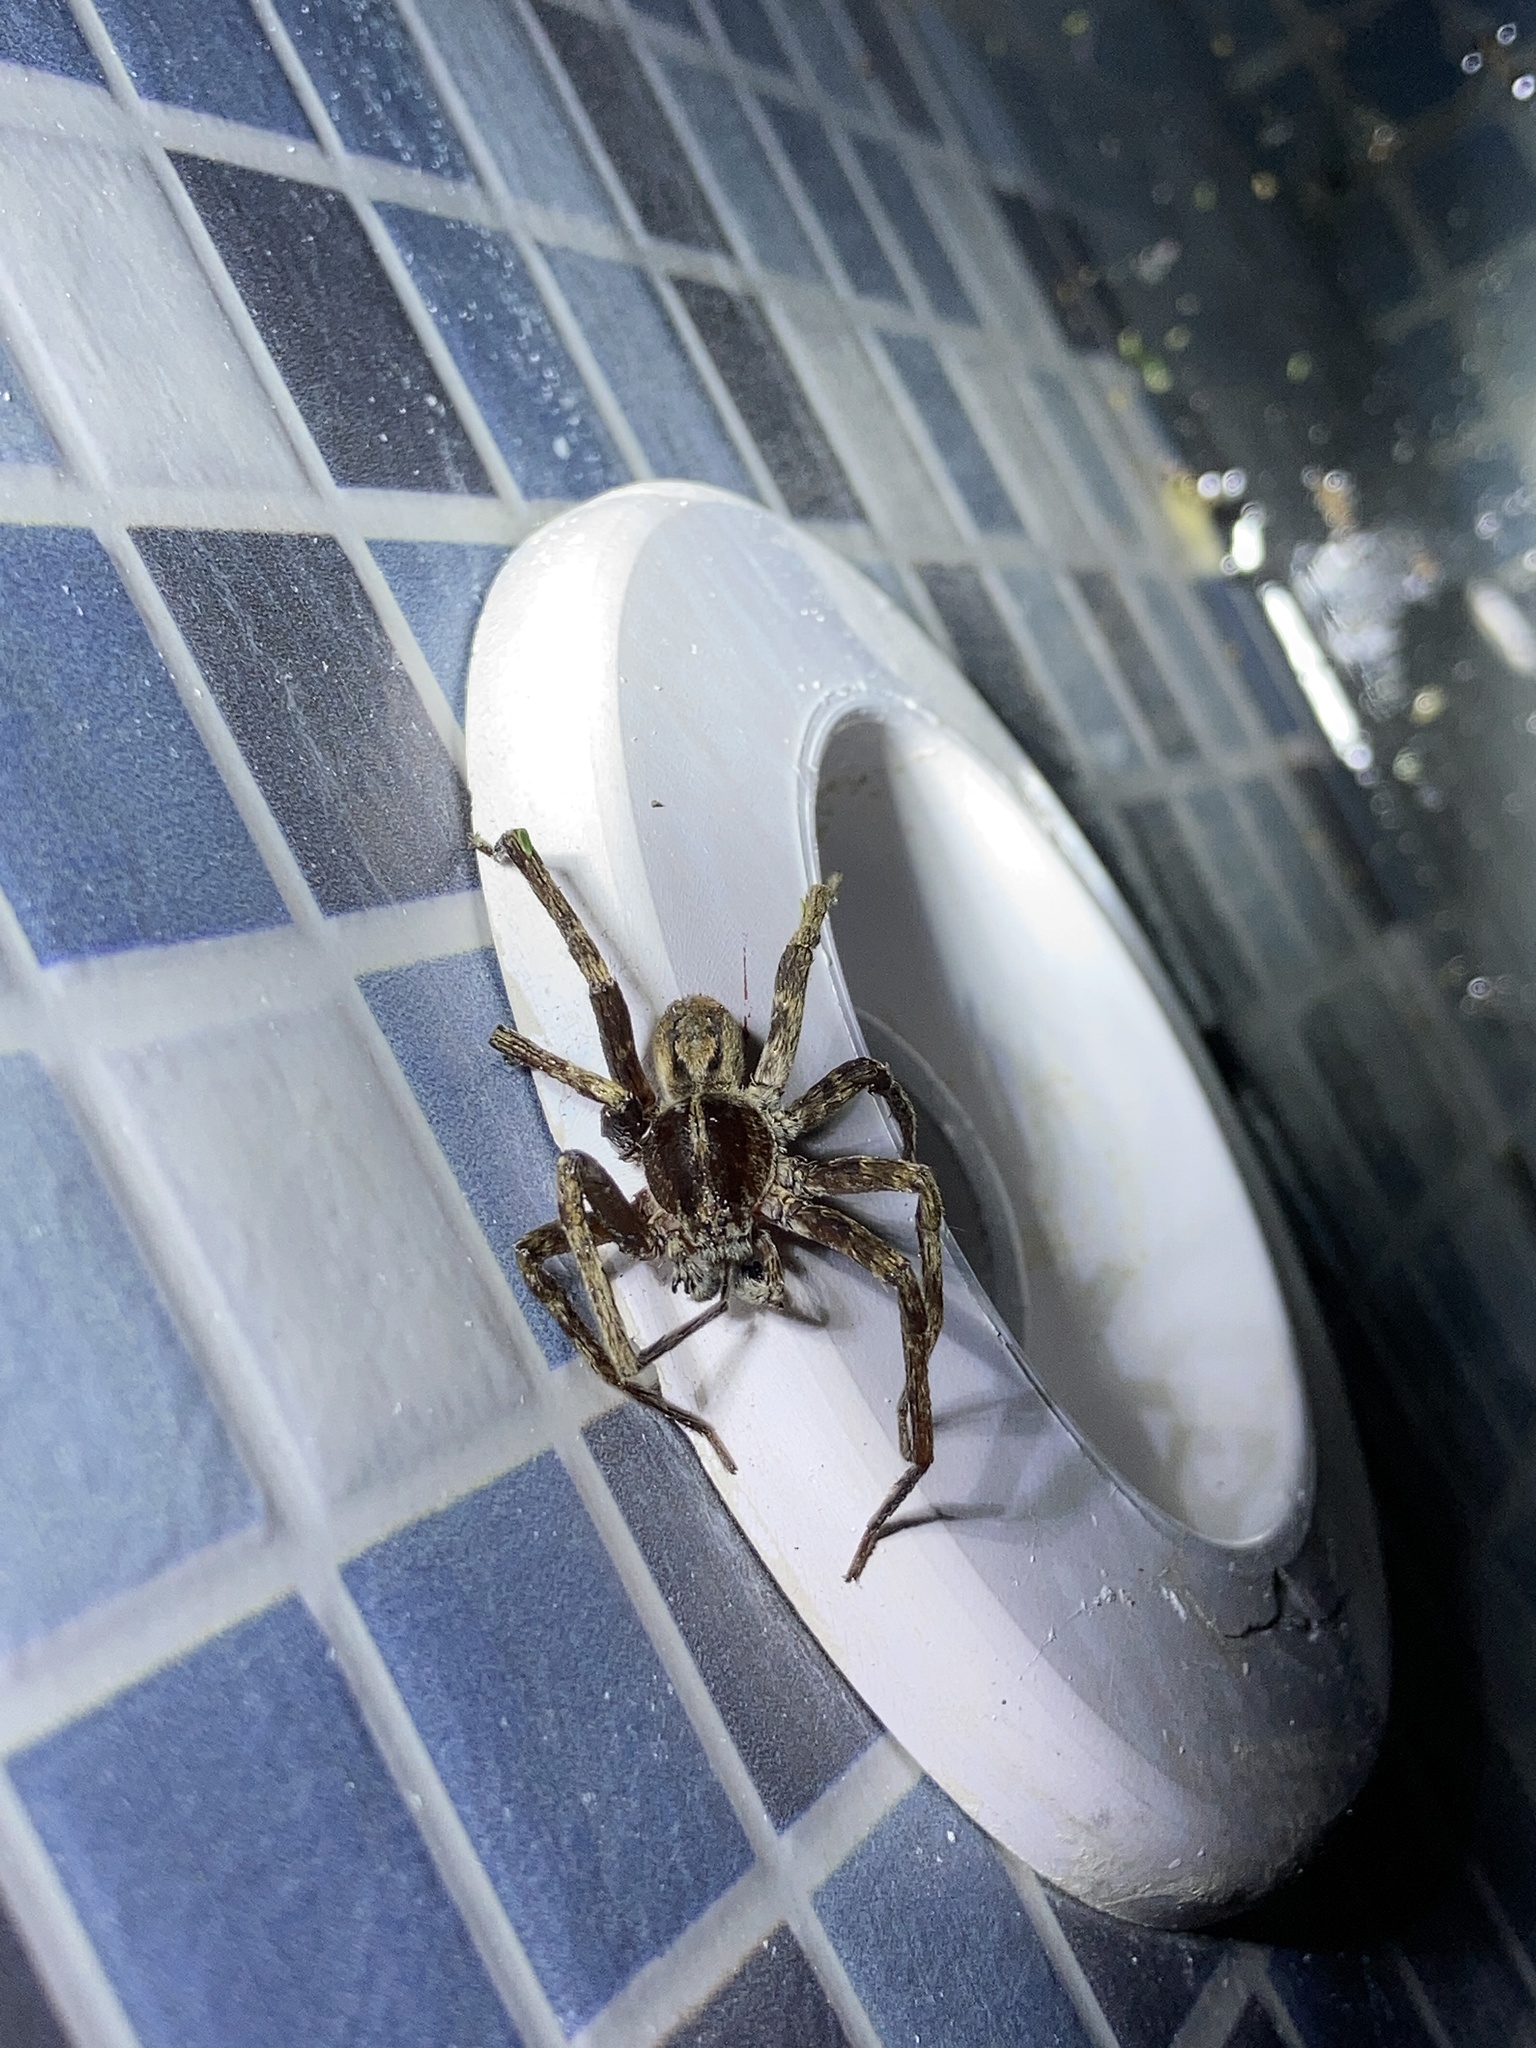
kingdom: Animalia
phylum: Arthropoda
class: Arachnida
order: Araneae
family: Ctenidae
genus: Parabatinga
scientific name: Parabatinga brevipes
